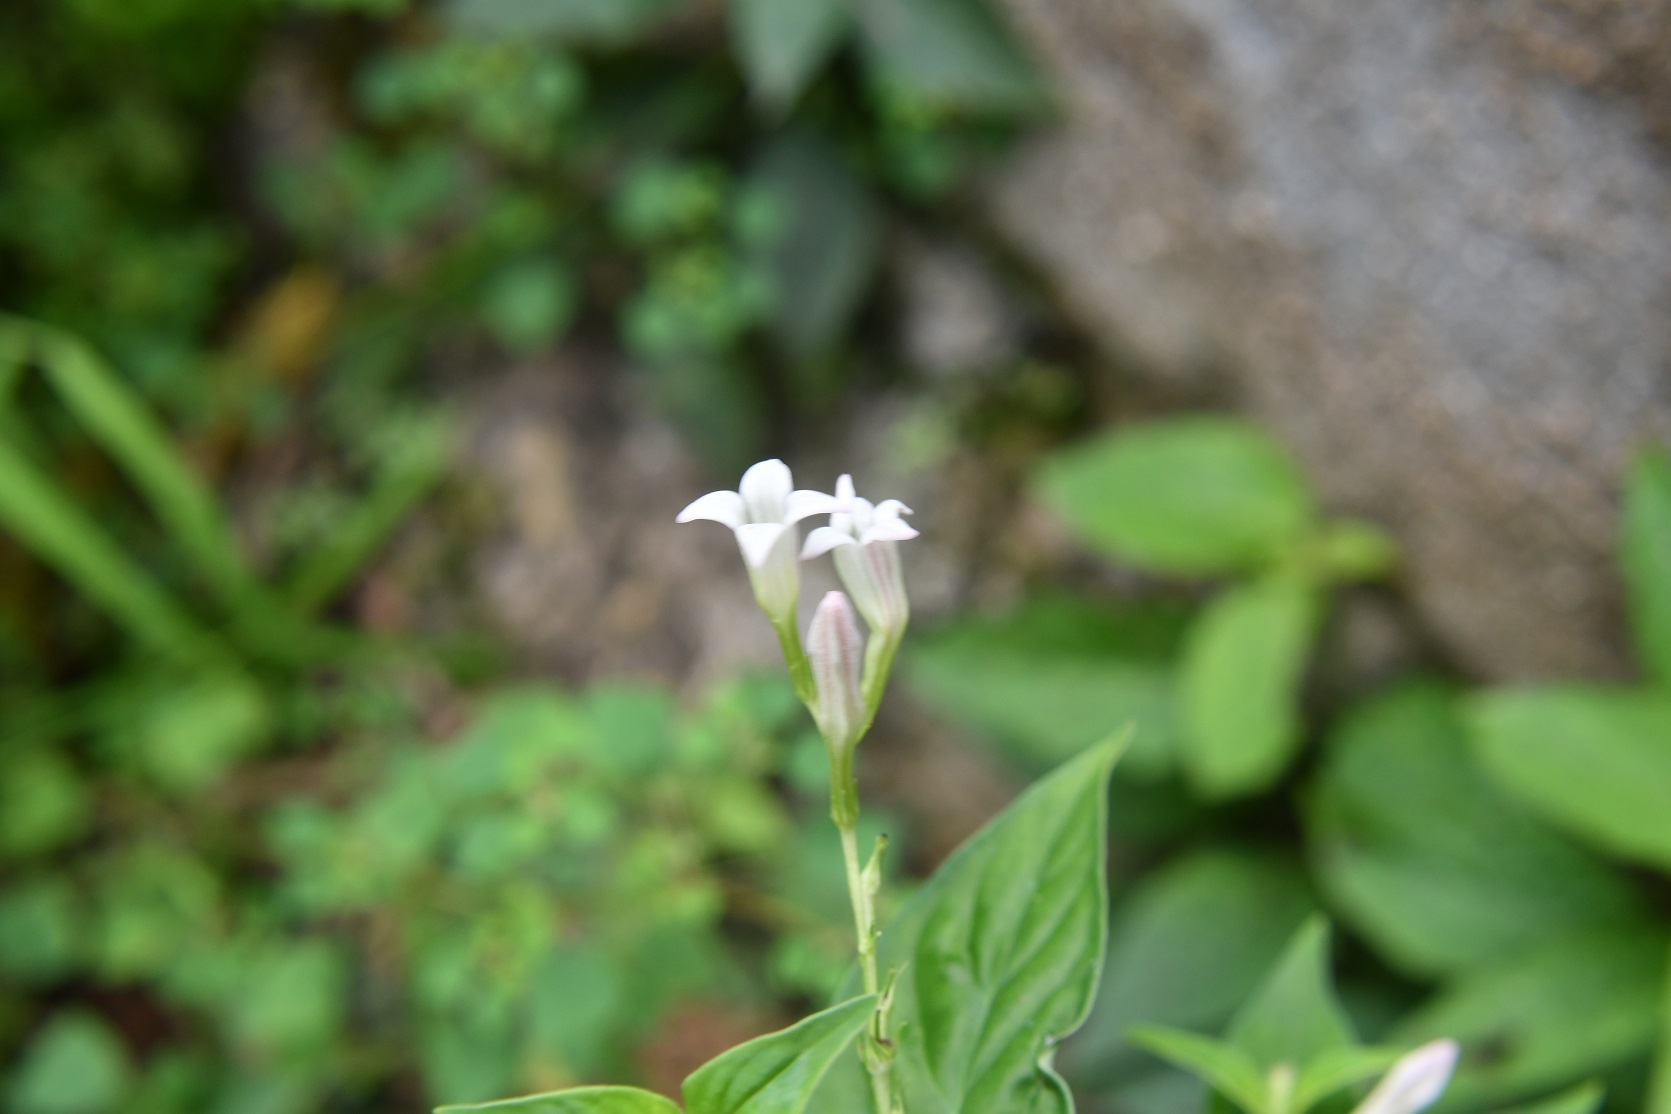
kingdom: Plantae
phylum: Tracheophyta
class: Magnoliopsida
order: Gentianales
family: Loganiaceae
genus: Spigelia
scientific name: Spigelia humboldtiana
